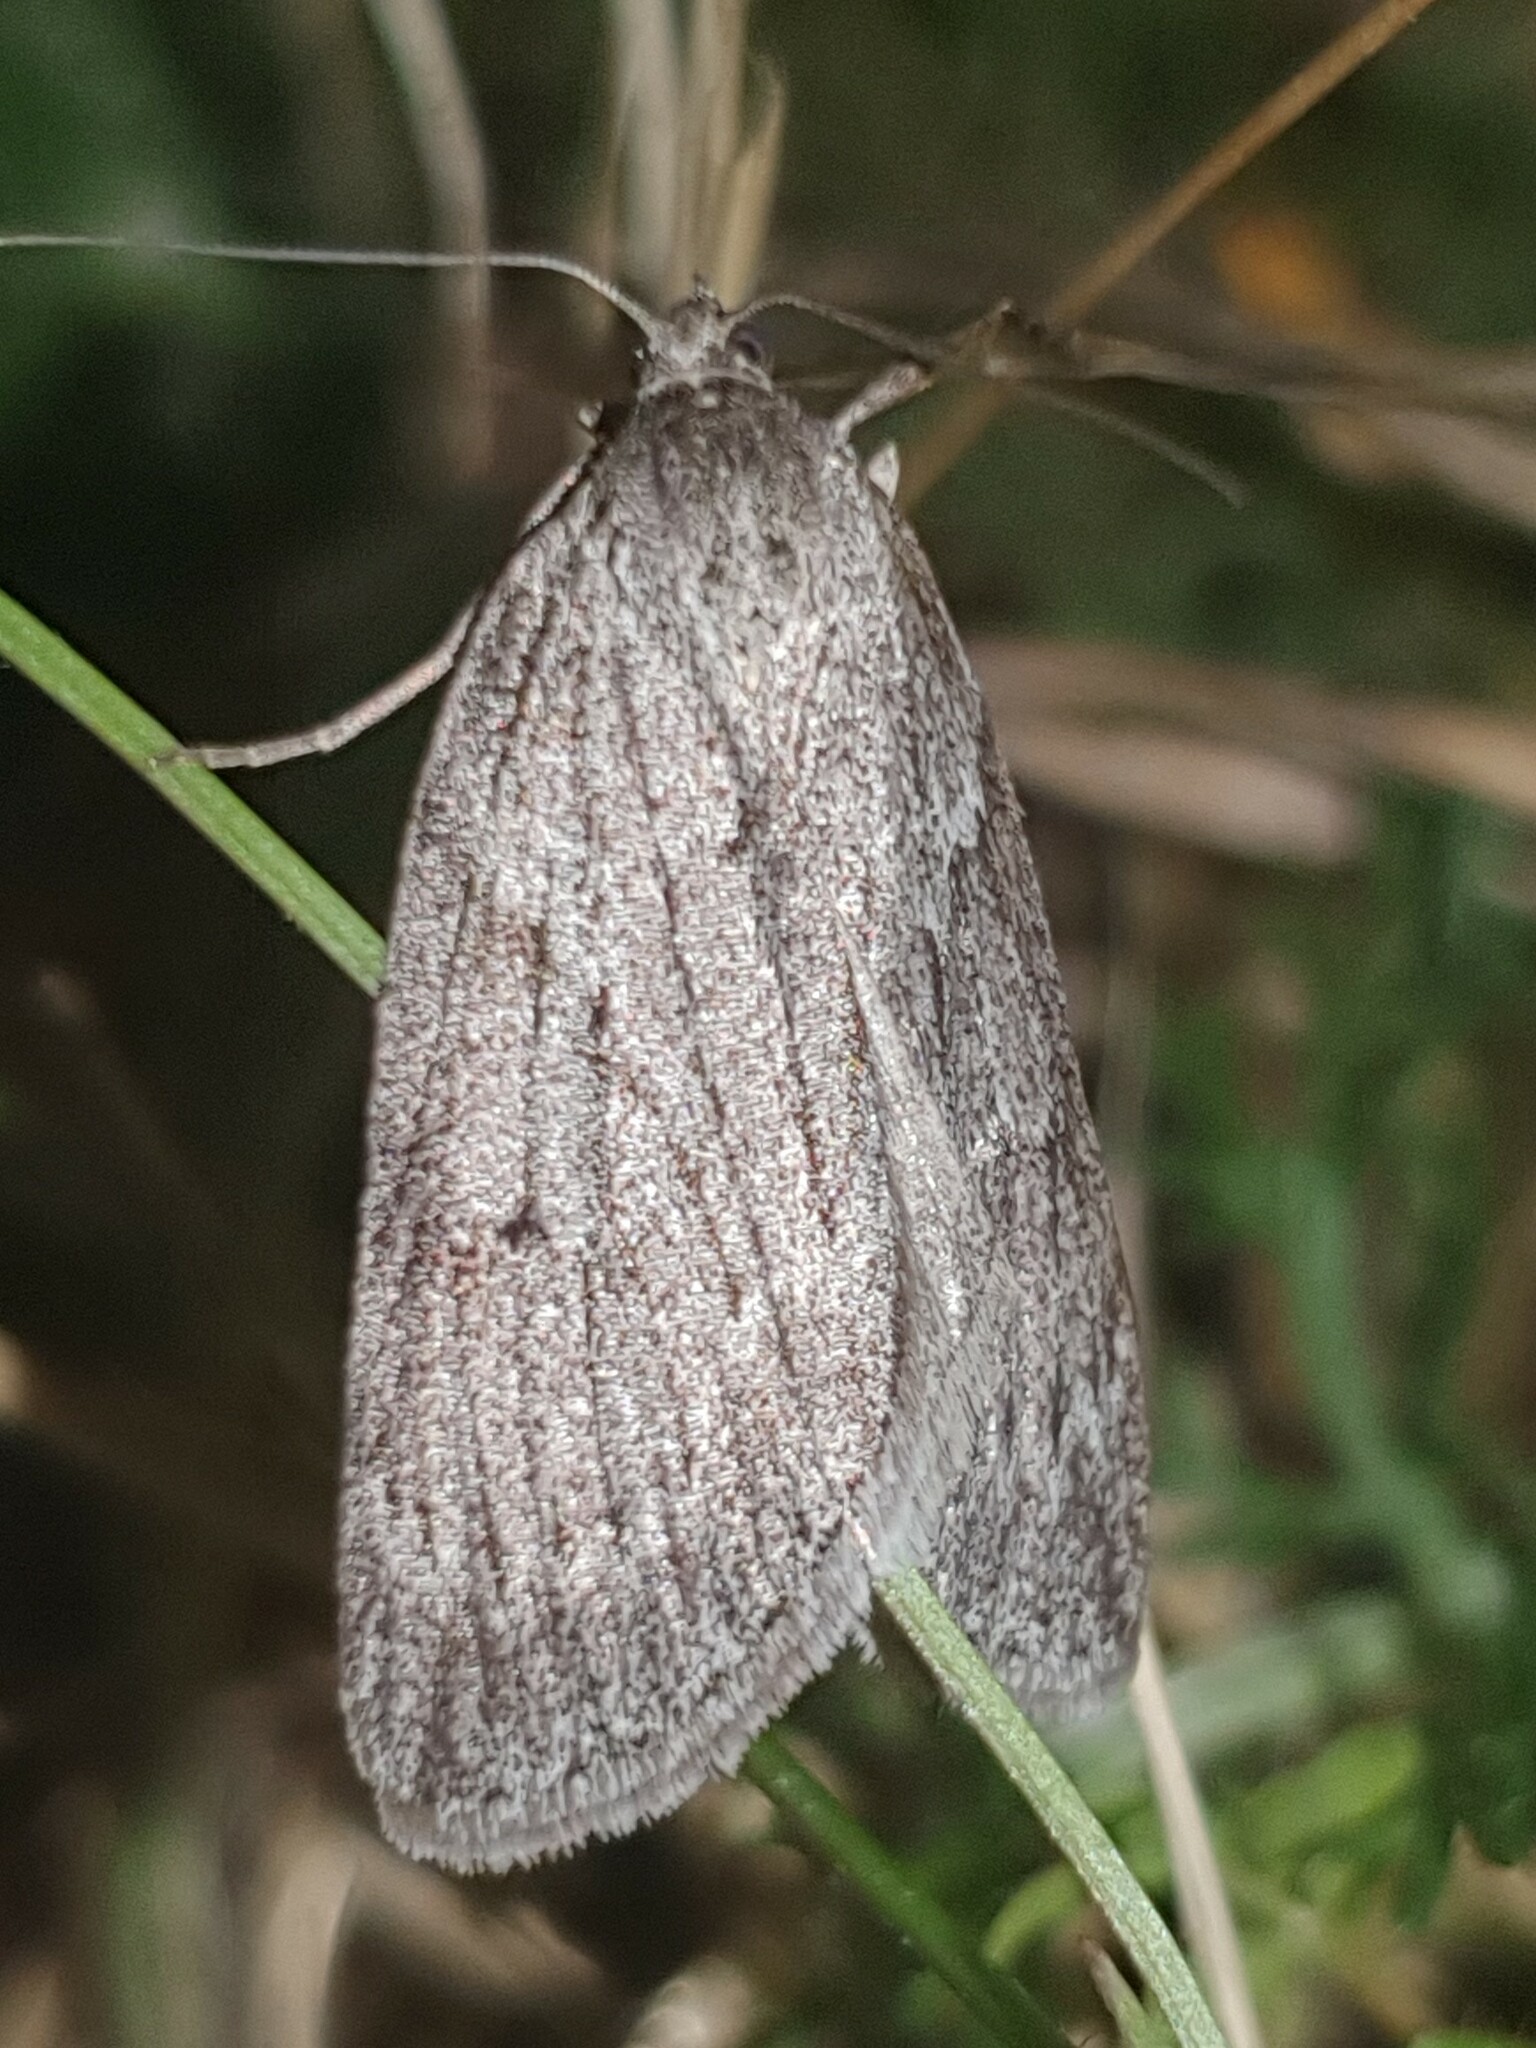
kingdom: Animalia
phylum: Arthropoda
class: Insecta
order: Lepidoptera
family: Geometridae
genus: Pachycnemia
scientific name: Pachycnemia hippocastanaria
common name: Horse chestnut
